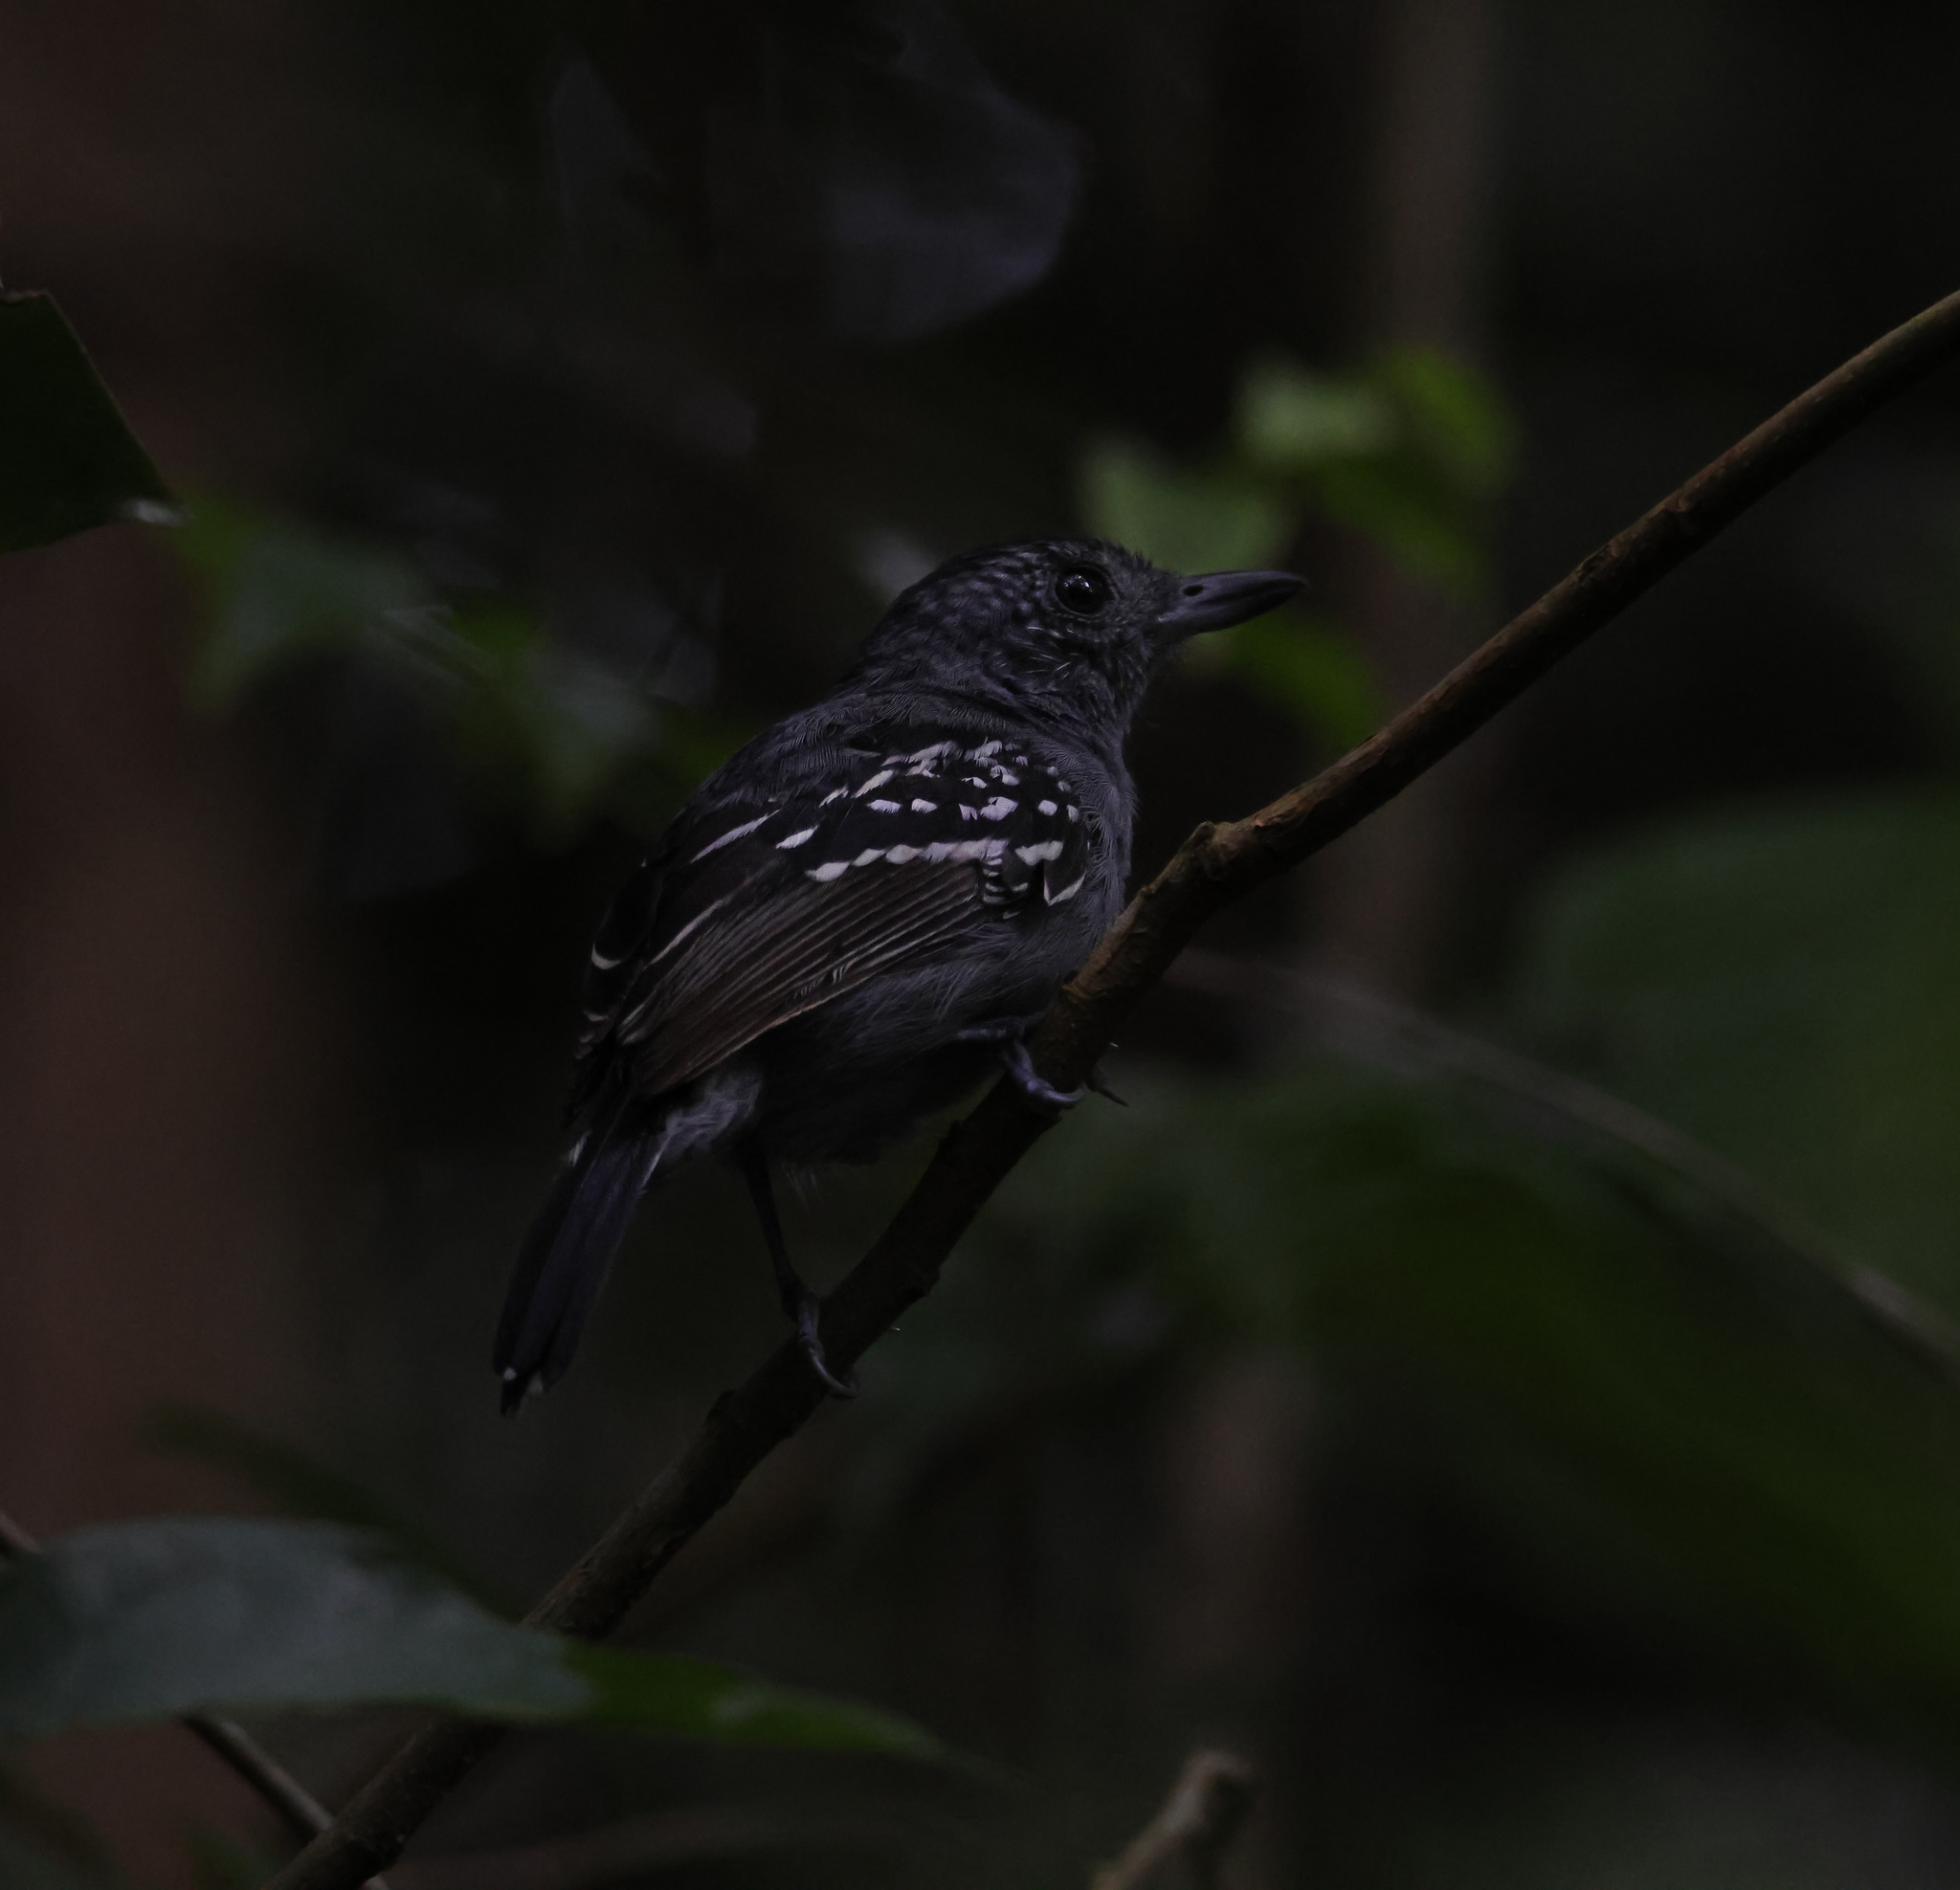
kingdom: Animalia
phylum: Chordata
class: Aves
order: Passeriformes
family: Thamnophilidae
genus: Thamnophilus
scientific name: Thamnophilus atrinucha
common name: Black-crowned antshrike
